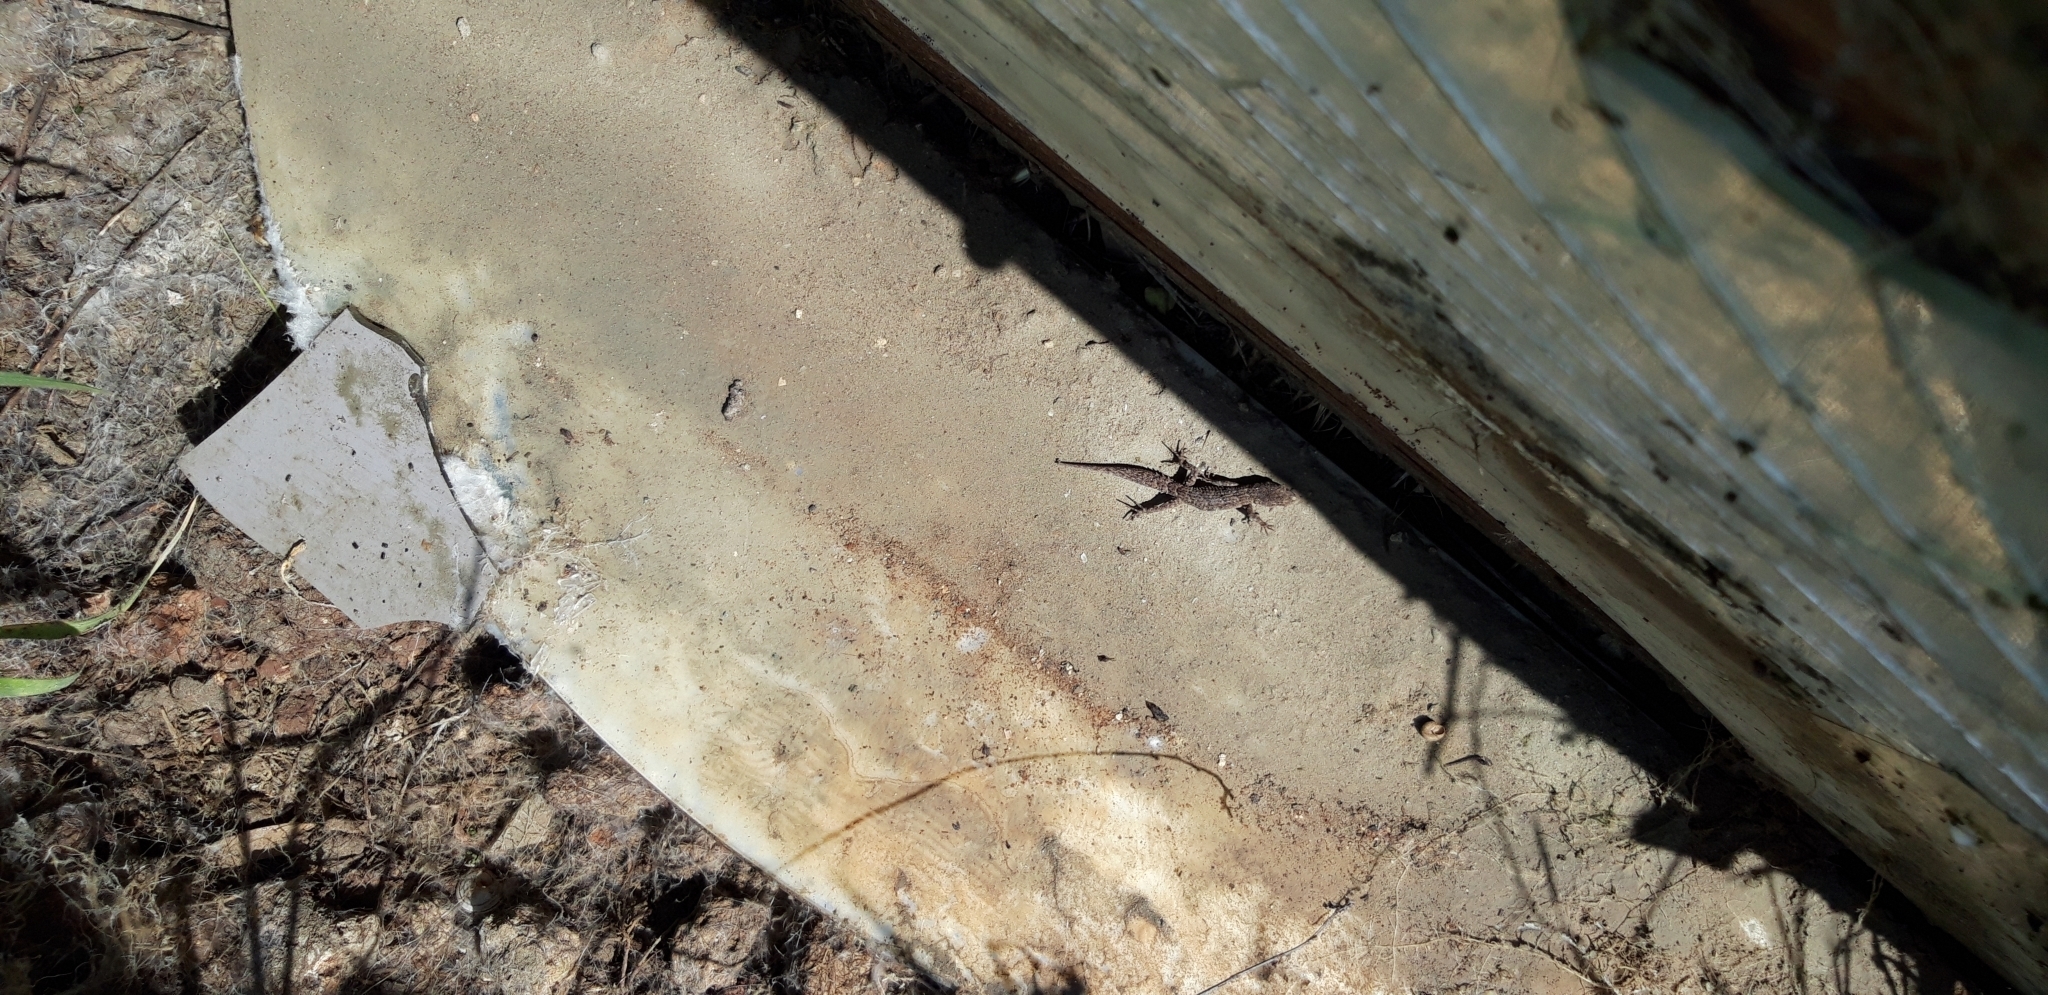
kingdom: Animalia
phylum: Chordata
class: Squamata
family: Gekkonidae
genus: Mediodactylus
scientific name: Mediodactylus orientalis
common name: Mediterranean thin-toed gecko
